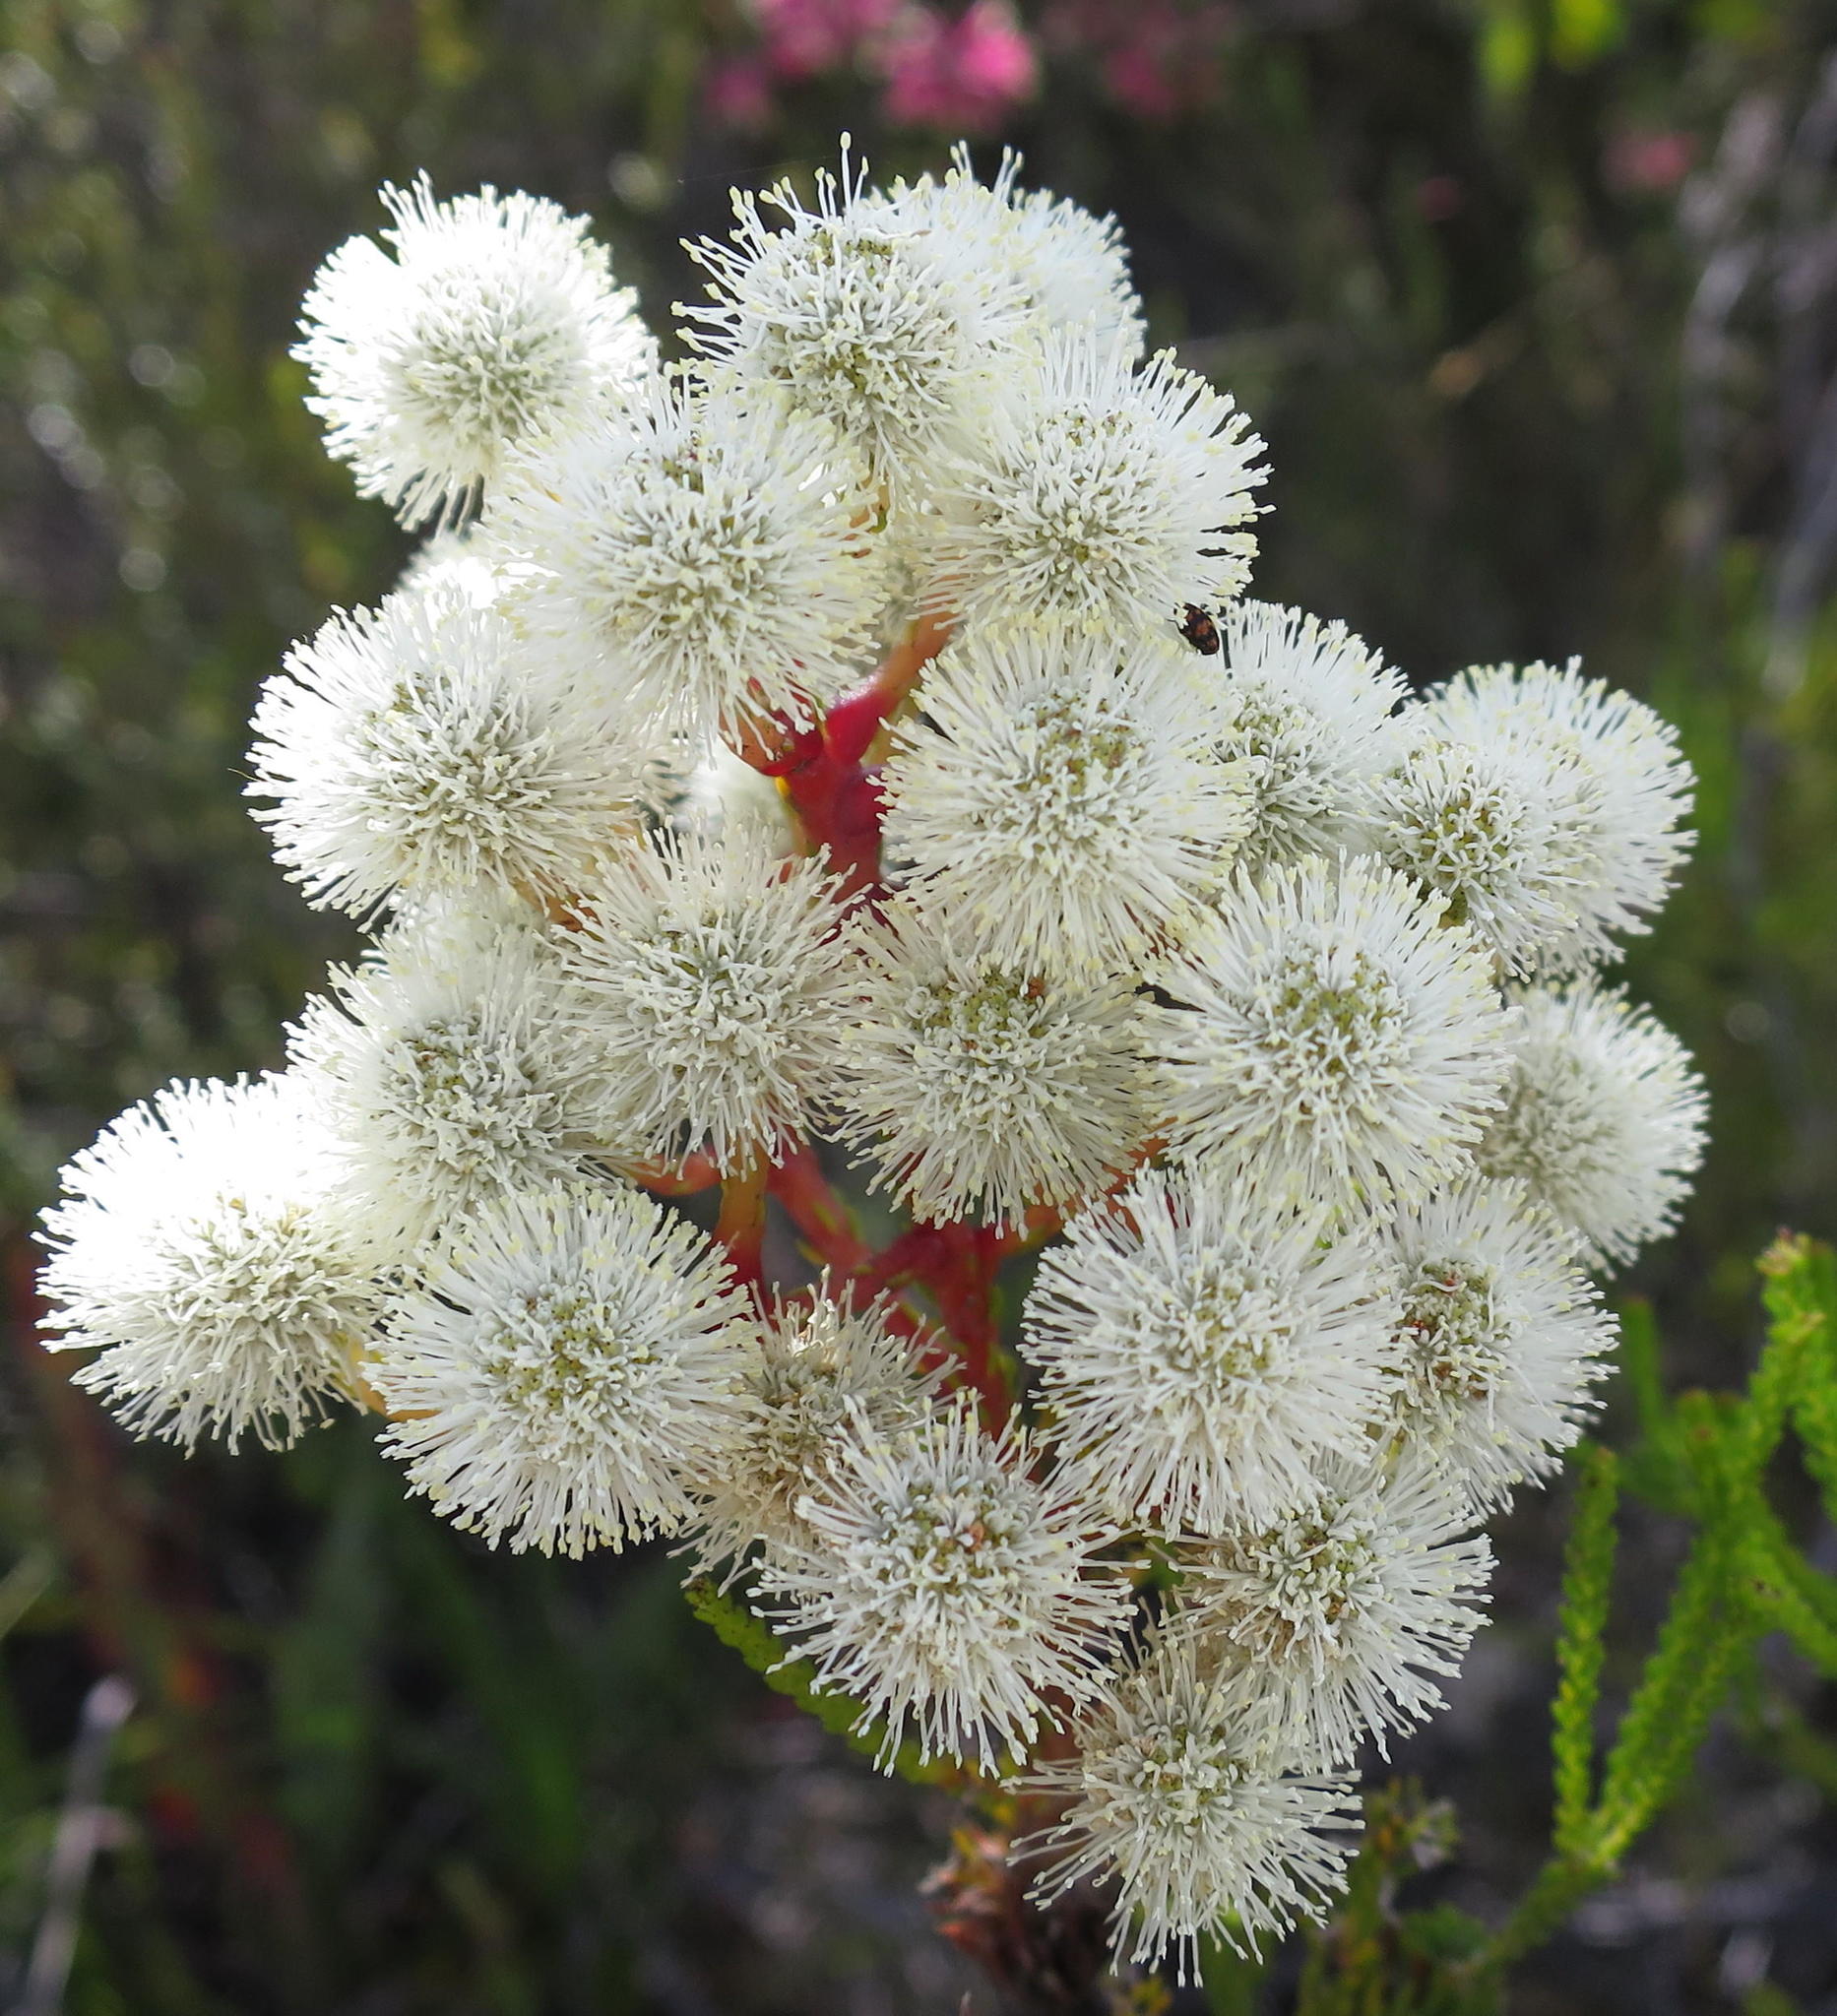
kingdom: Plantae
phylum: Tracheophyta
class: Magnoliopsida
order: Bruniales
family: Bruniaceae
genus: Berzelia
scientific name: Berzelia intermedia
